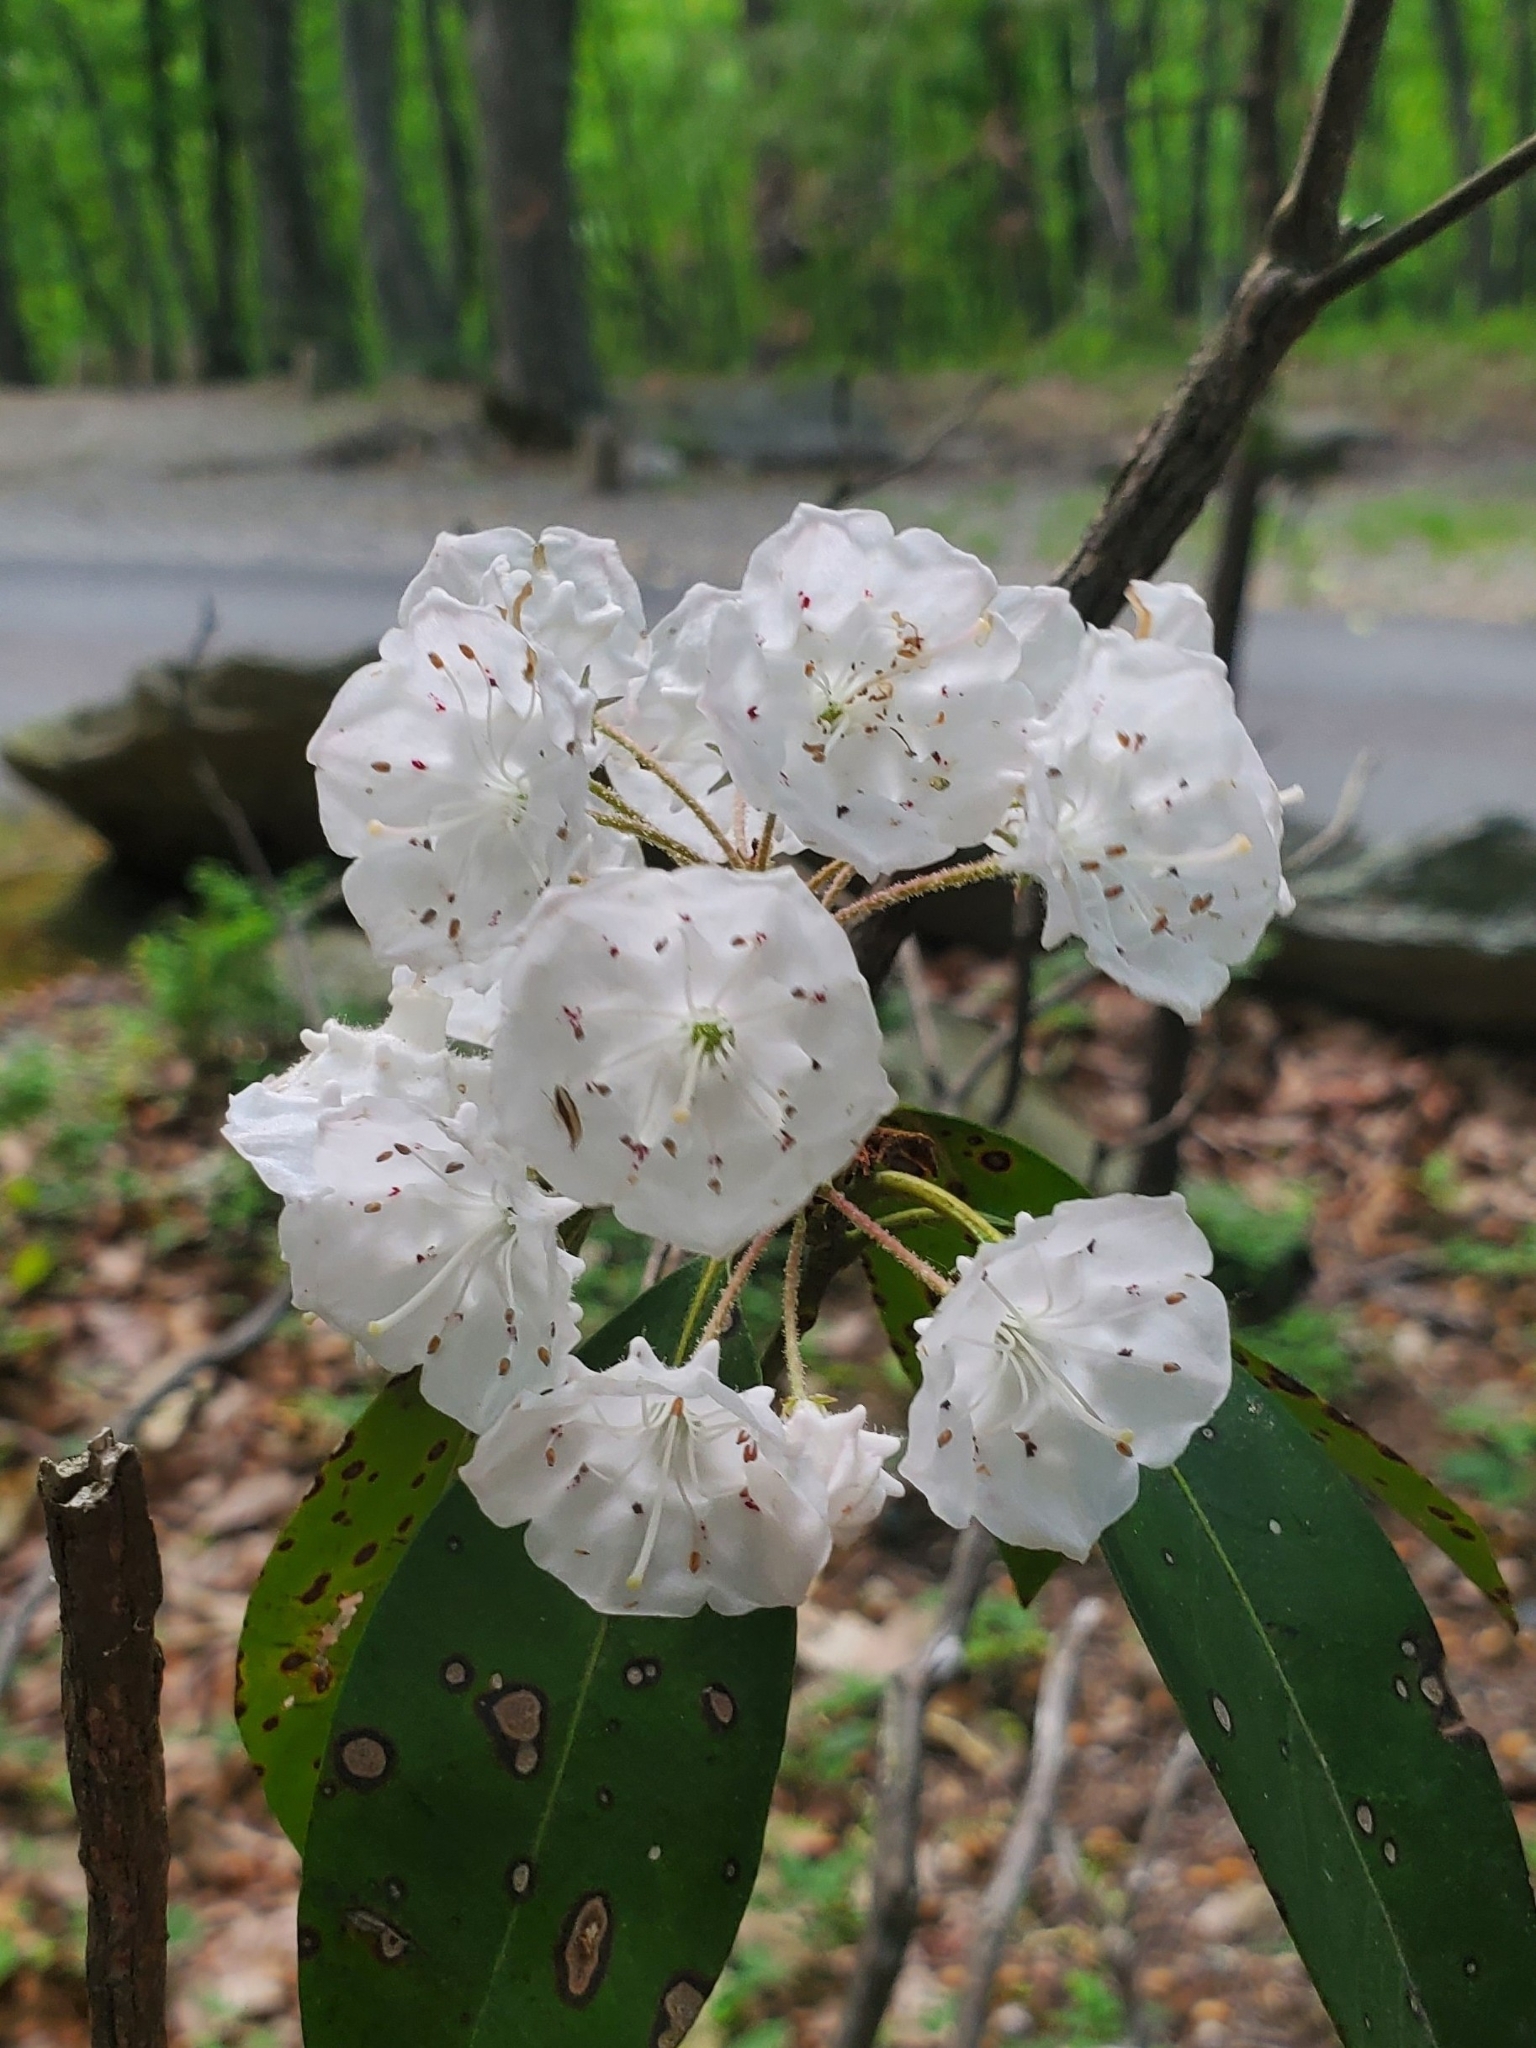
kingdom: Plantae
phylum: Tracheophyta
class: Magnoliopsida
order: Ericales
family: Ericaceae
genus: Kalmia
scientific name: Kalmia latifolia
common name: Mountain-laurel
